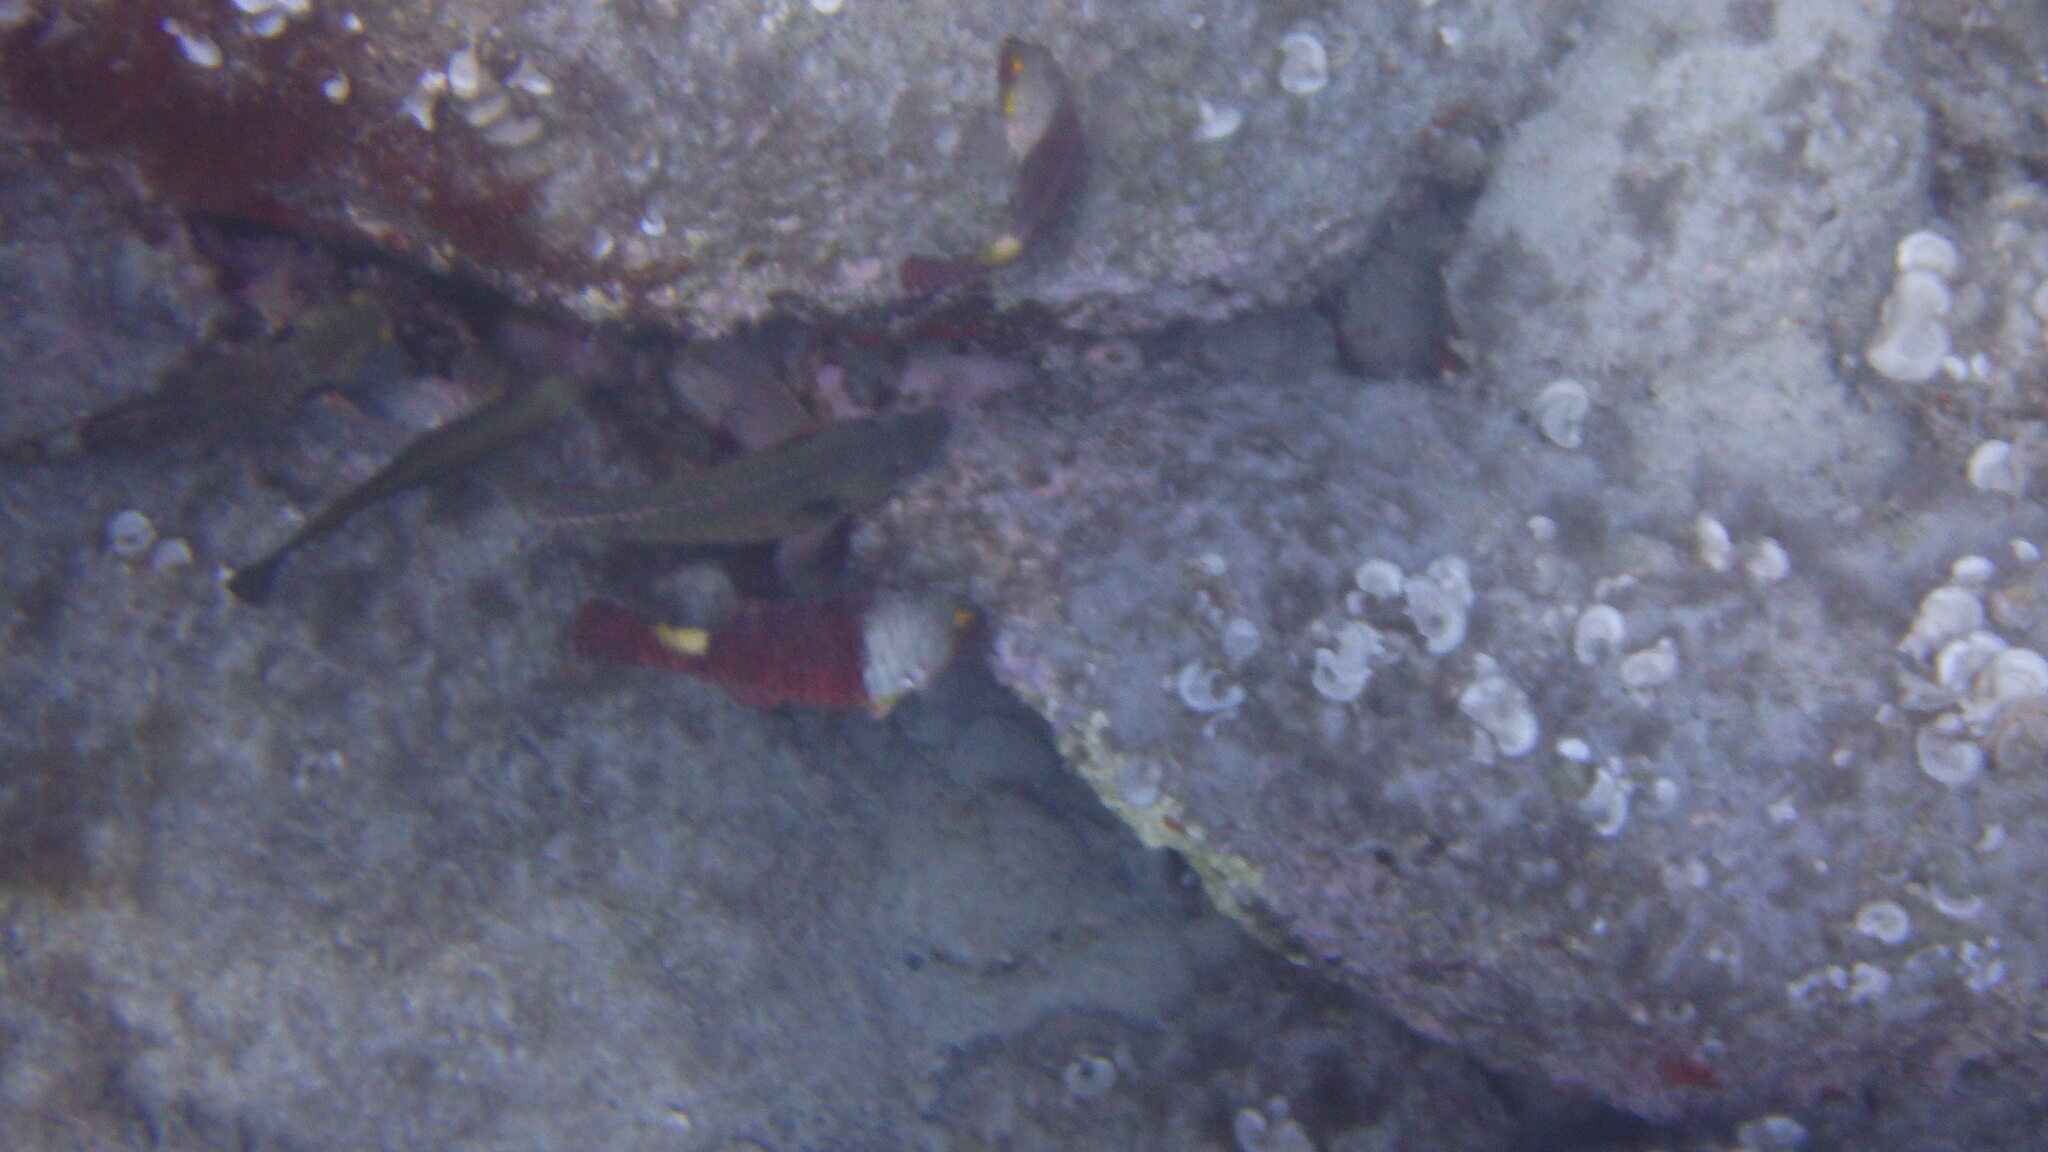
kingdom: Animalia
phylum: Chordata
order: Perciformes
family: Scaridae
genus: Sparisoma
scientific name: Sparisoma cretense
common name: Parrotfish
